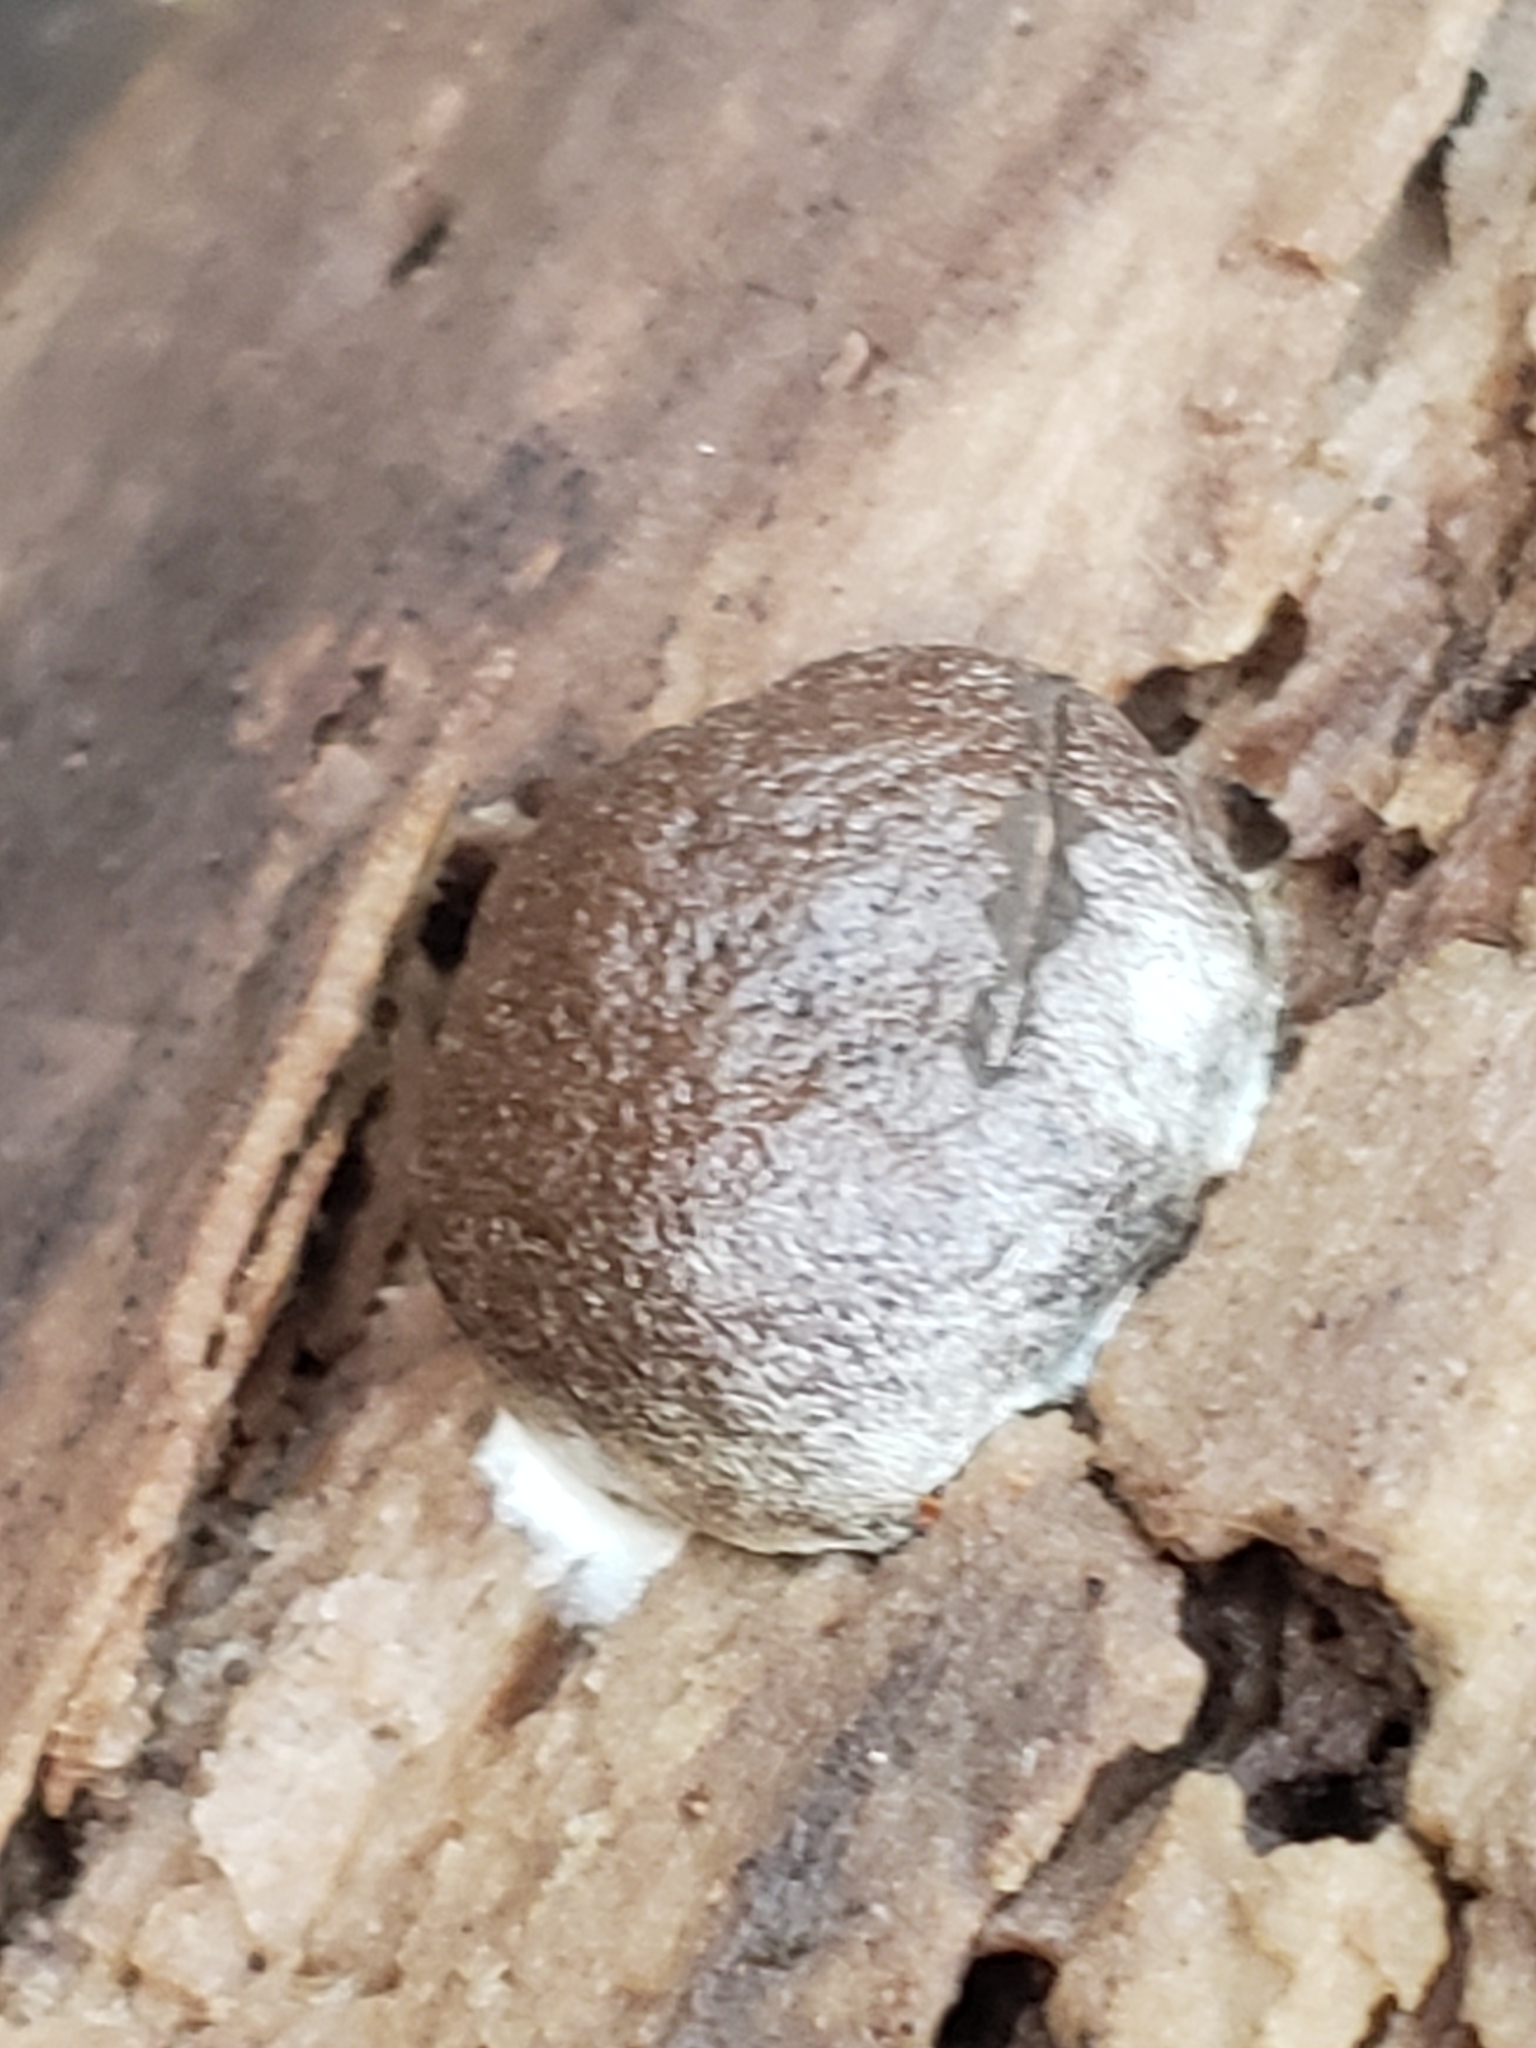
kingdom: Protozoa
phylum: Mycetozoa
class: Myxomycetes
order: Cribrariales
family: Tubiferaceae
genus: Reticularia
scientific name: Reticularia lycoperdon
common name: False puffball
